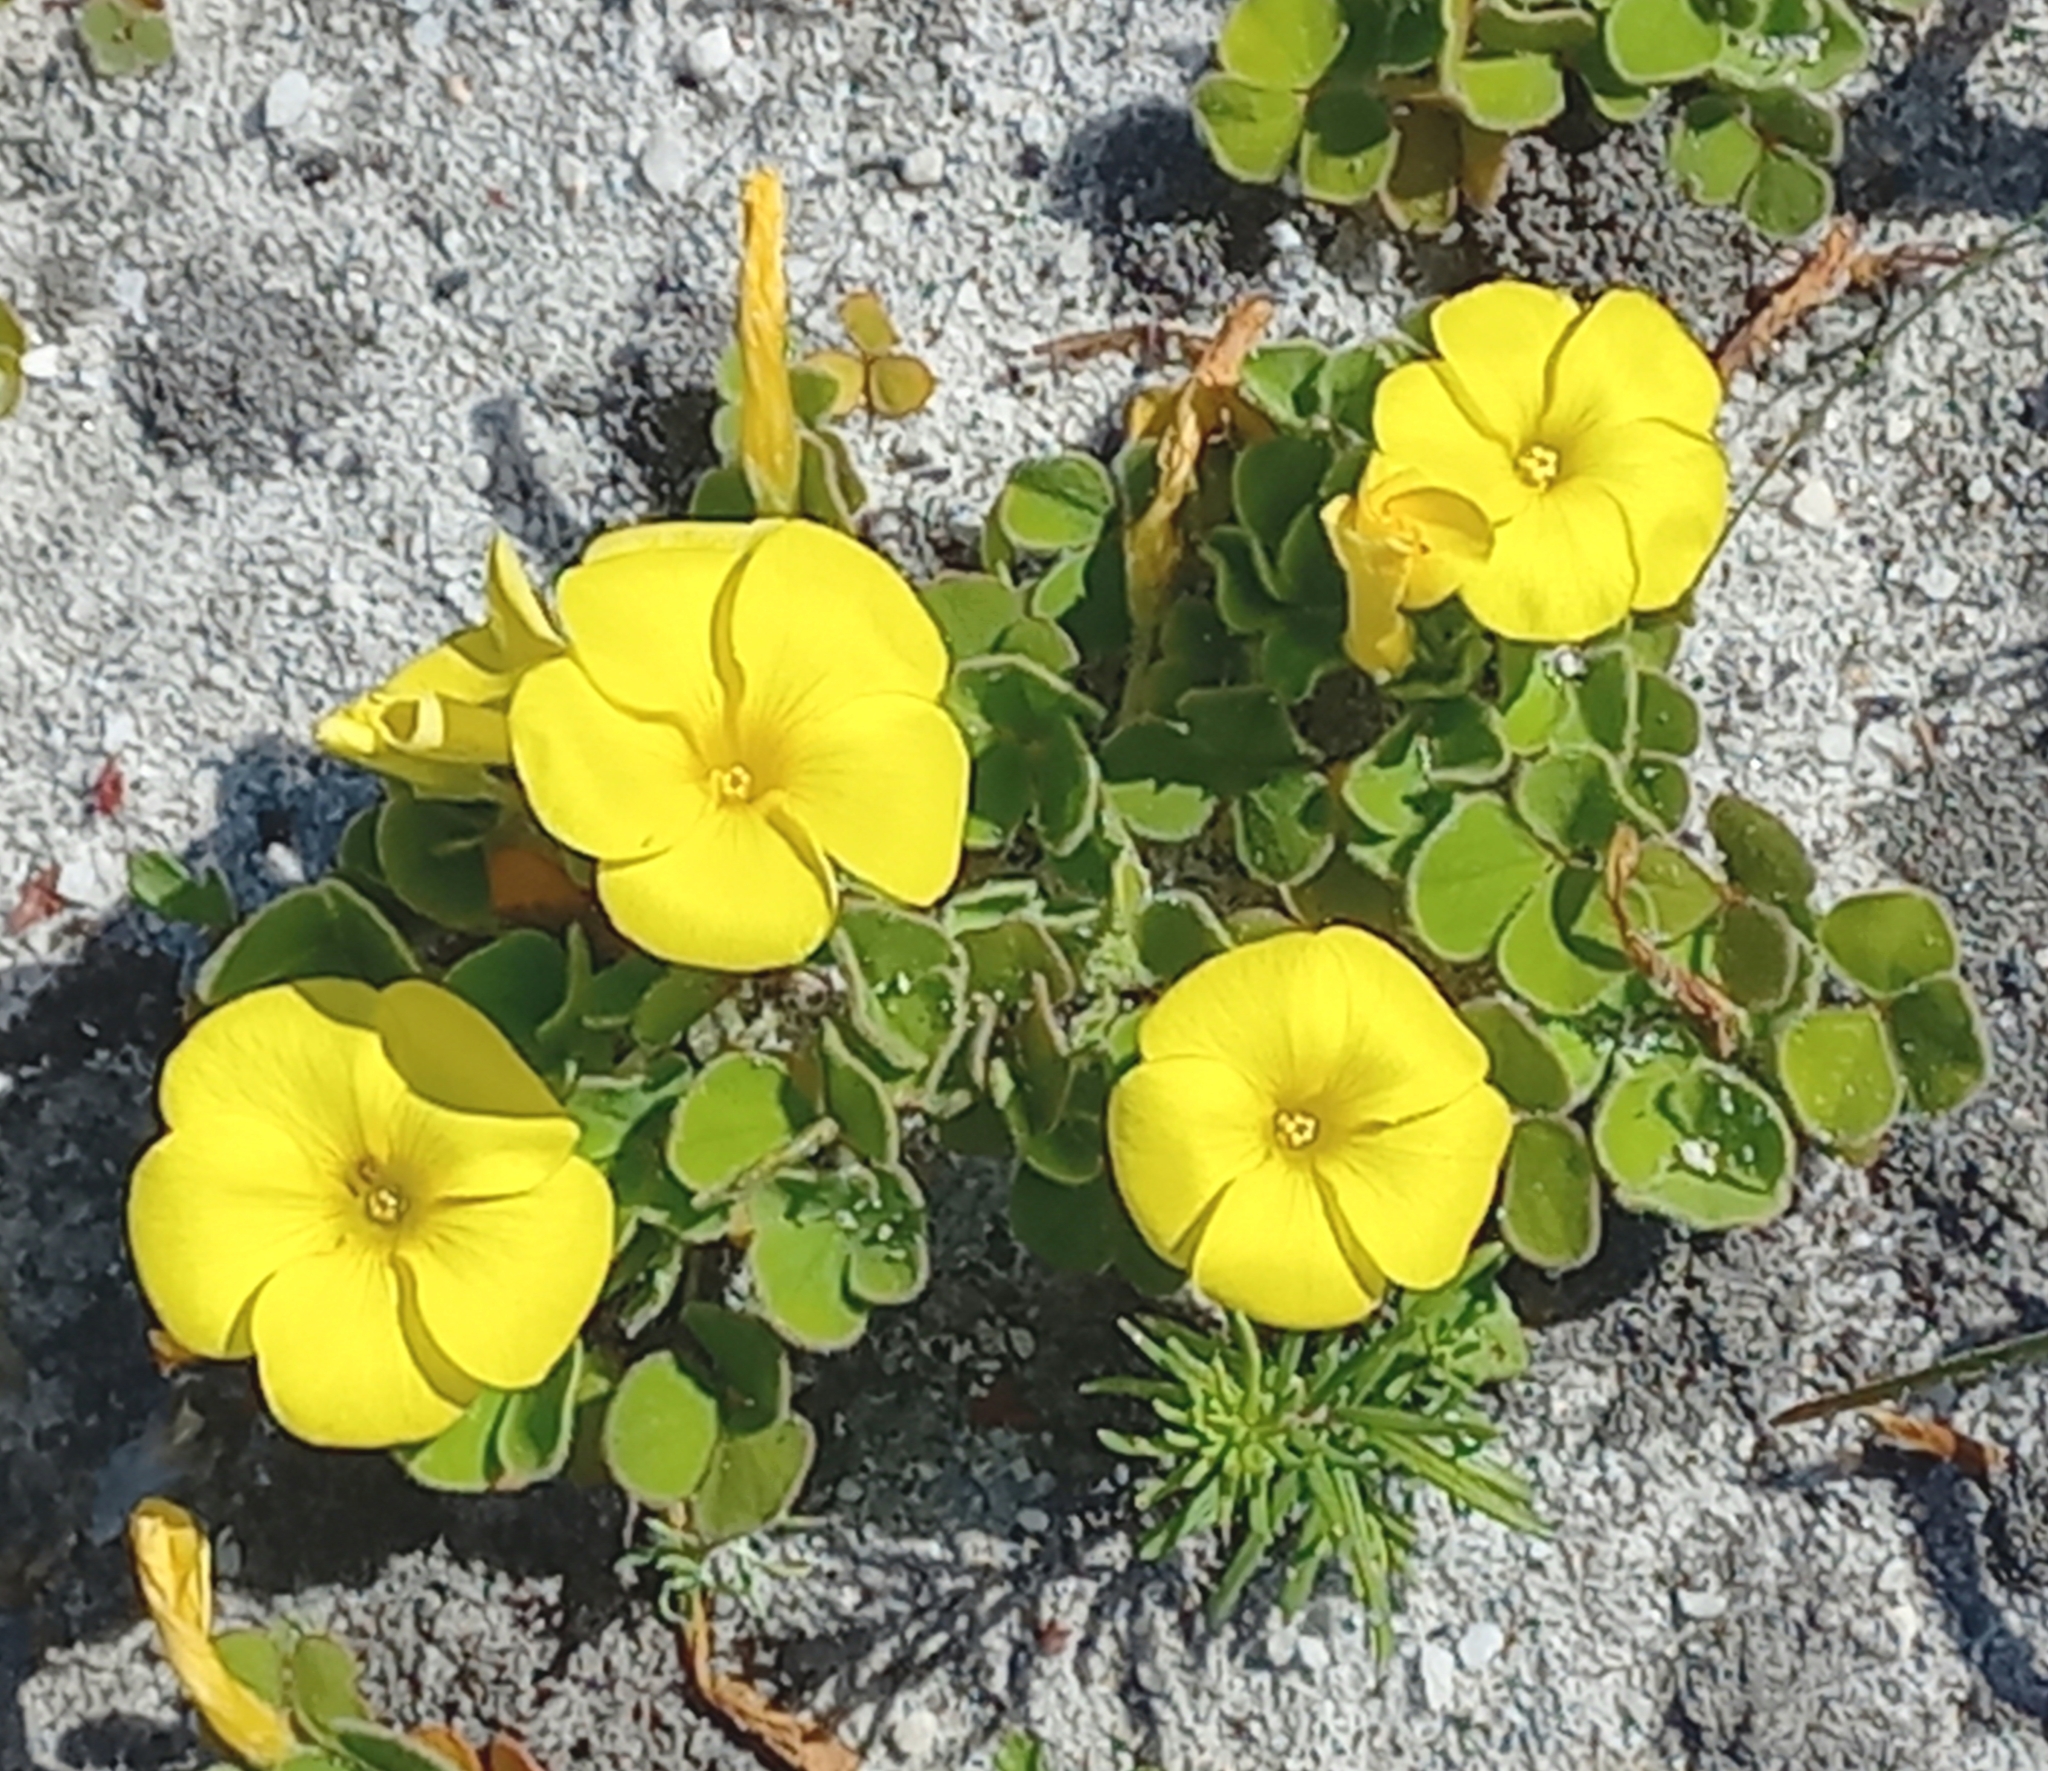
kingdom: Plantae
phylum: Tracheophyta
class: Magnoliopsida
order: Oxalidales
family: Oxalidaceae
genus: Oxalis
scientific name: Oxalis luteola
